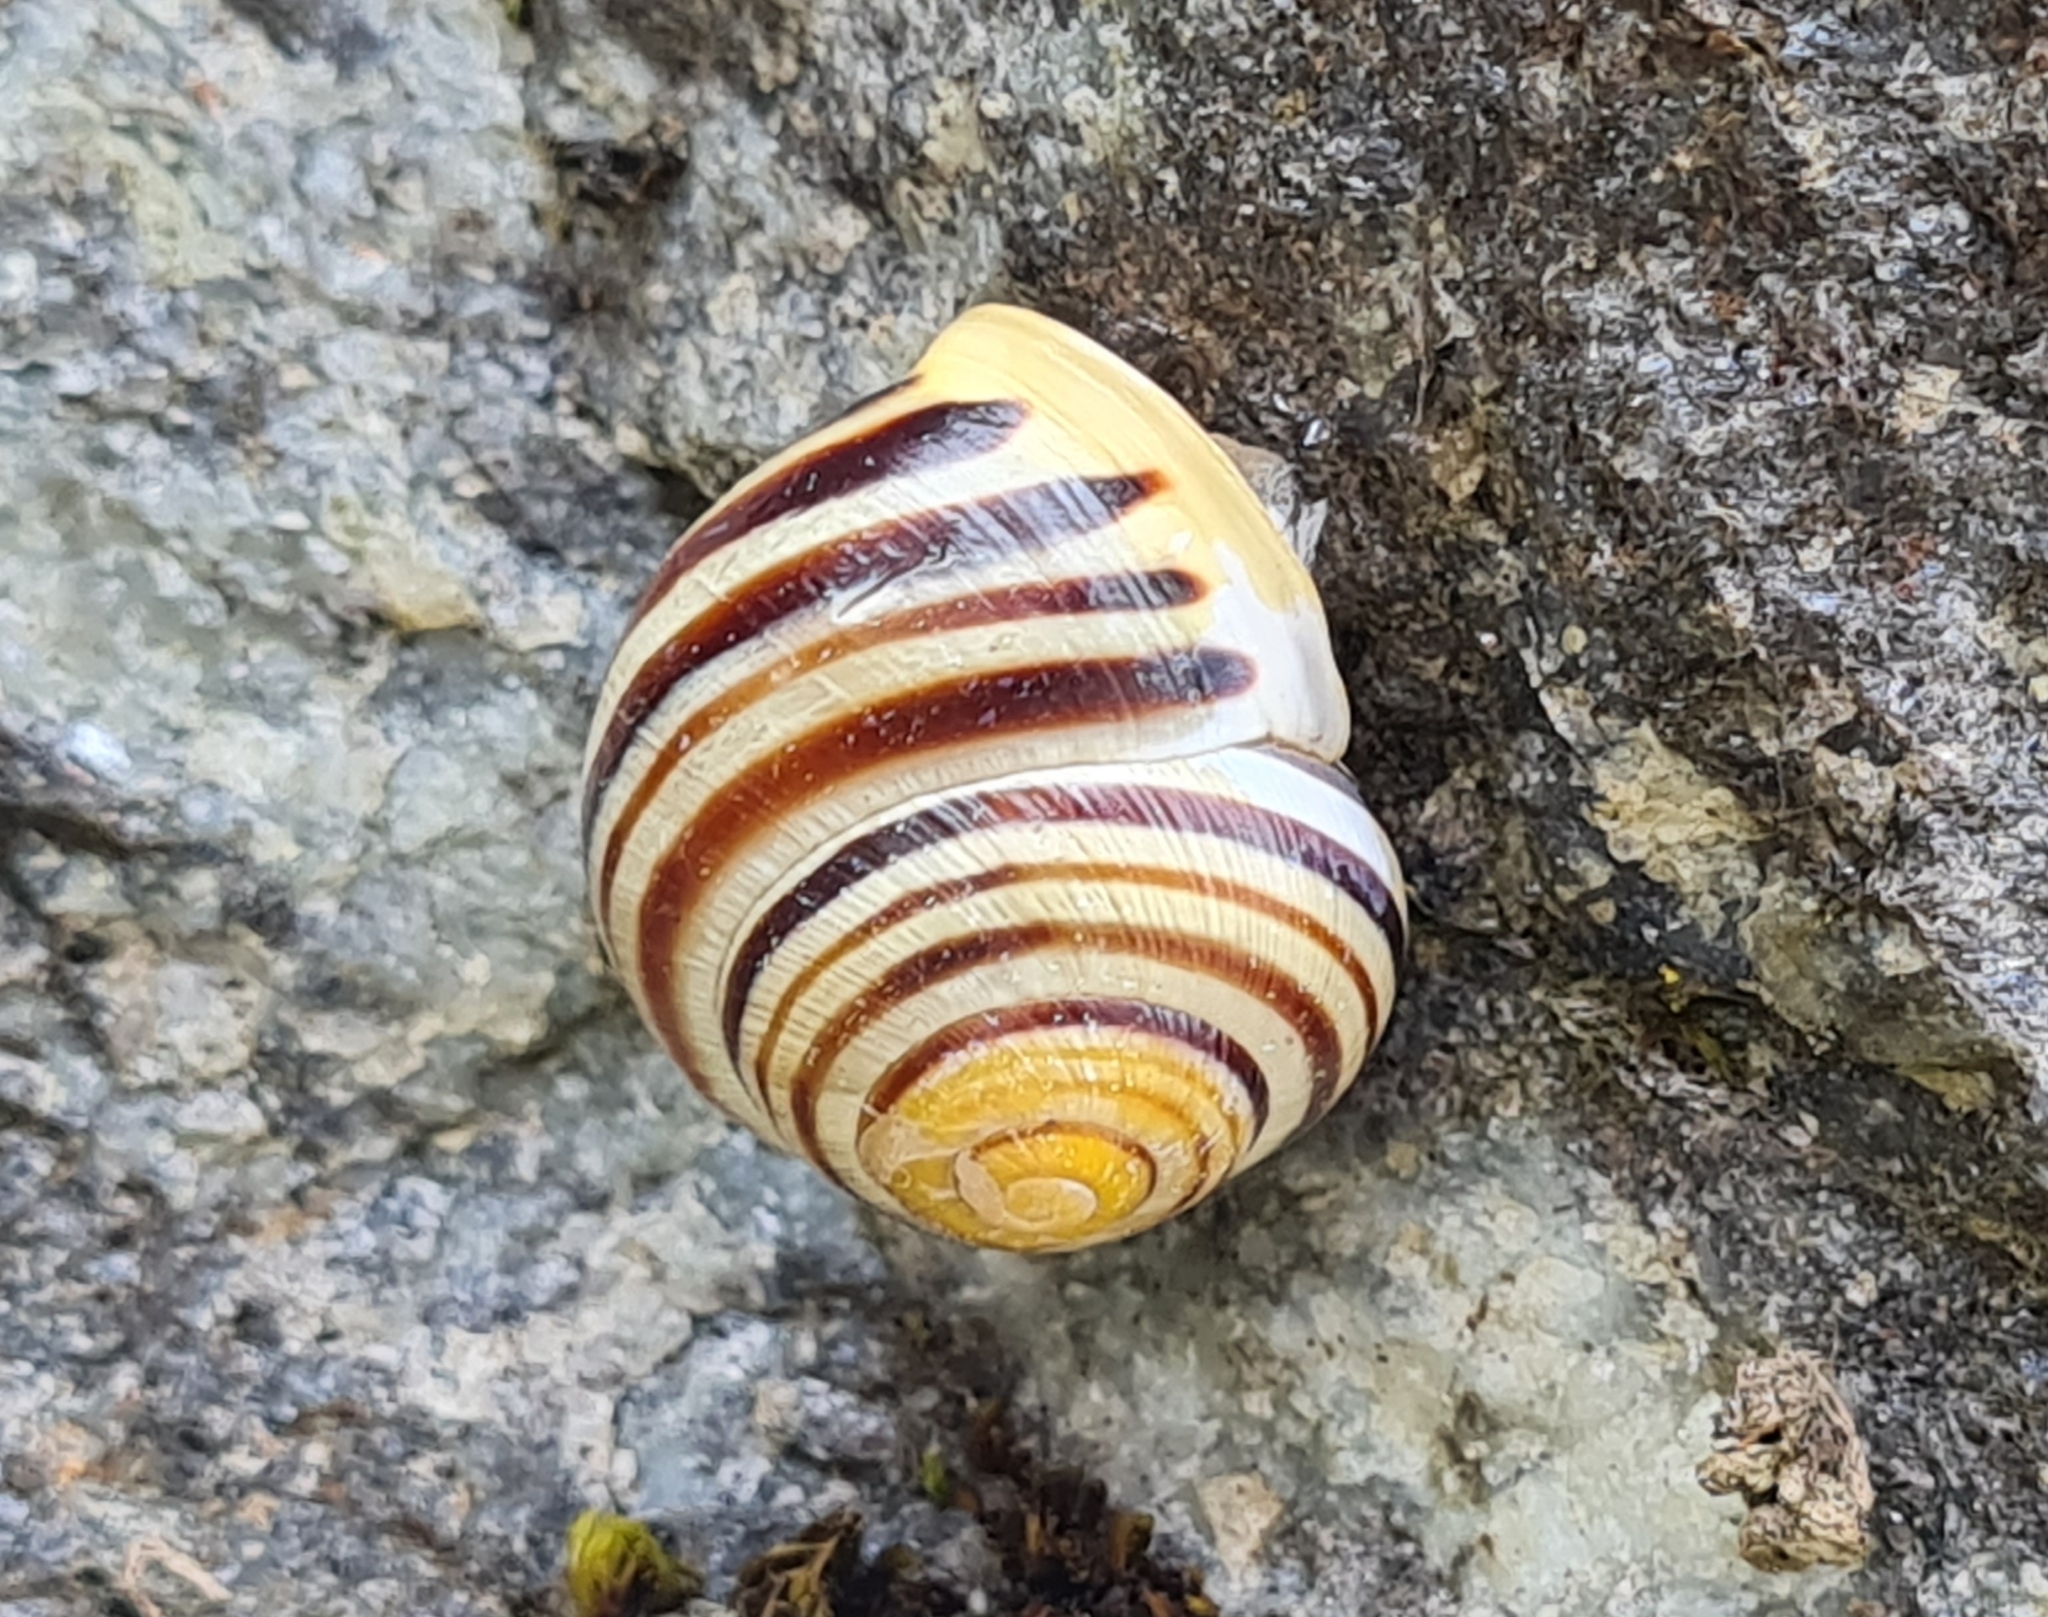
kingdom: Animalia
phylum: Mollusca
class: Gastropoda
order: Stylommatophora
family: Helicidae
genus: Cepaea
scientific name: Cepaea hortensis
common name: White-lip gardensnail
